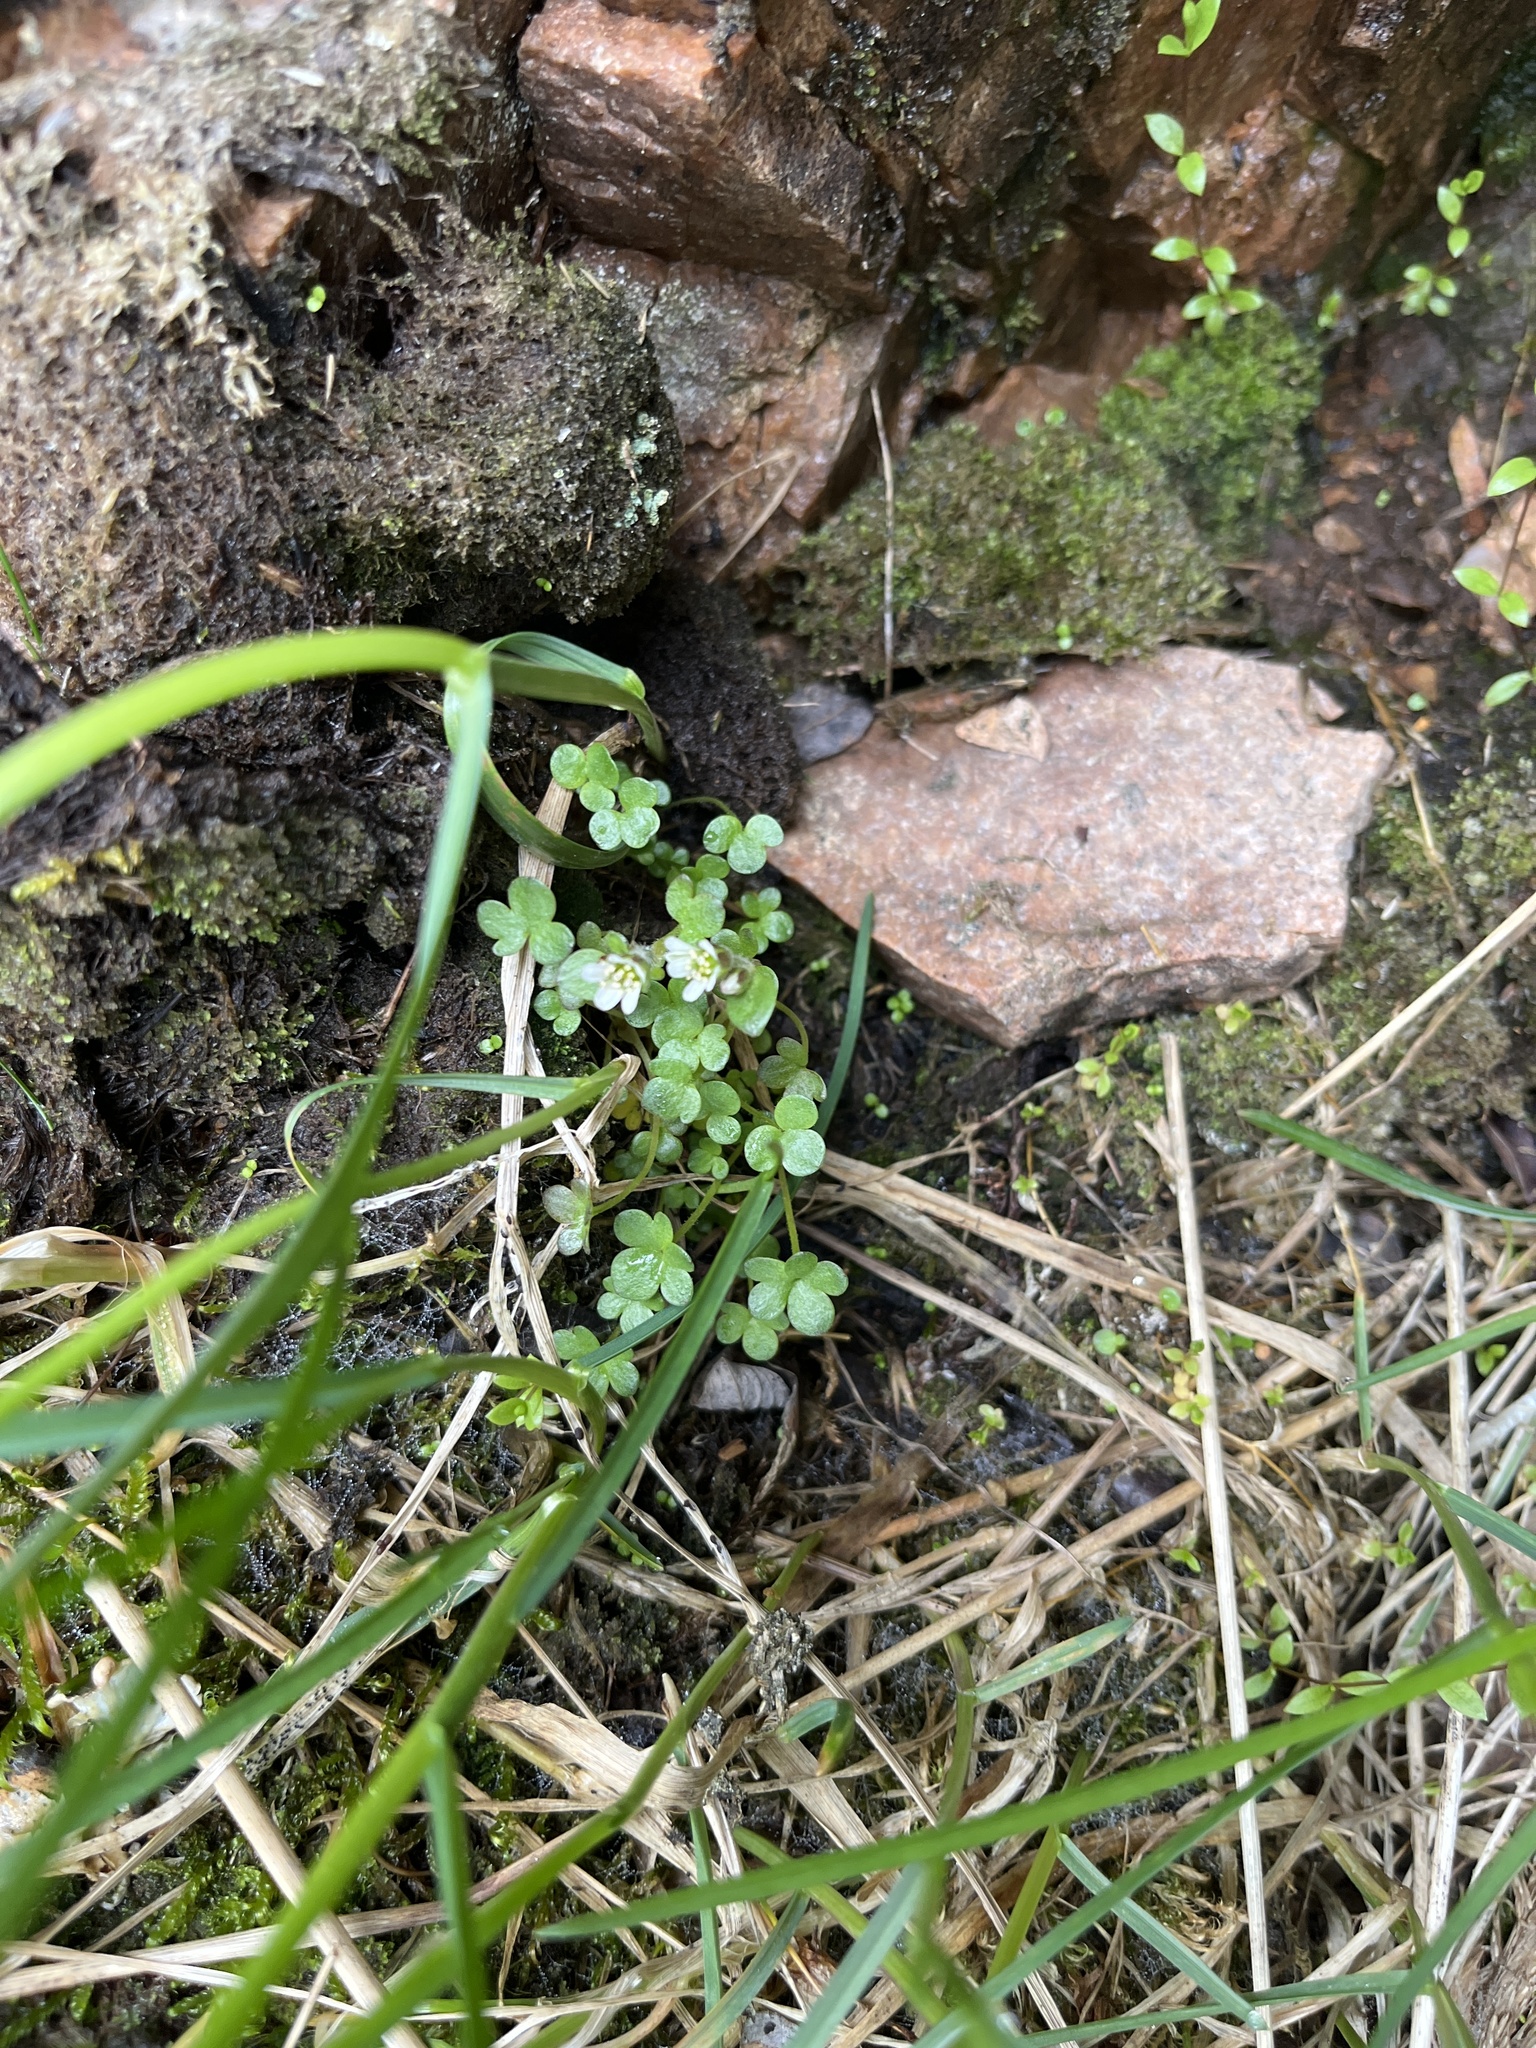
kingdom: Plantae
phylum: Tracheophyta
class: Magnoliopsida
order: Saxifragales
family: Saxifragaceae
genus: Saxifraga
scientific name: Saxifraga rivularis
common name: Highland saxifrage
